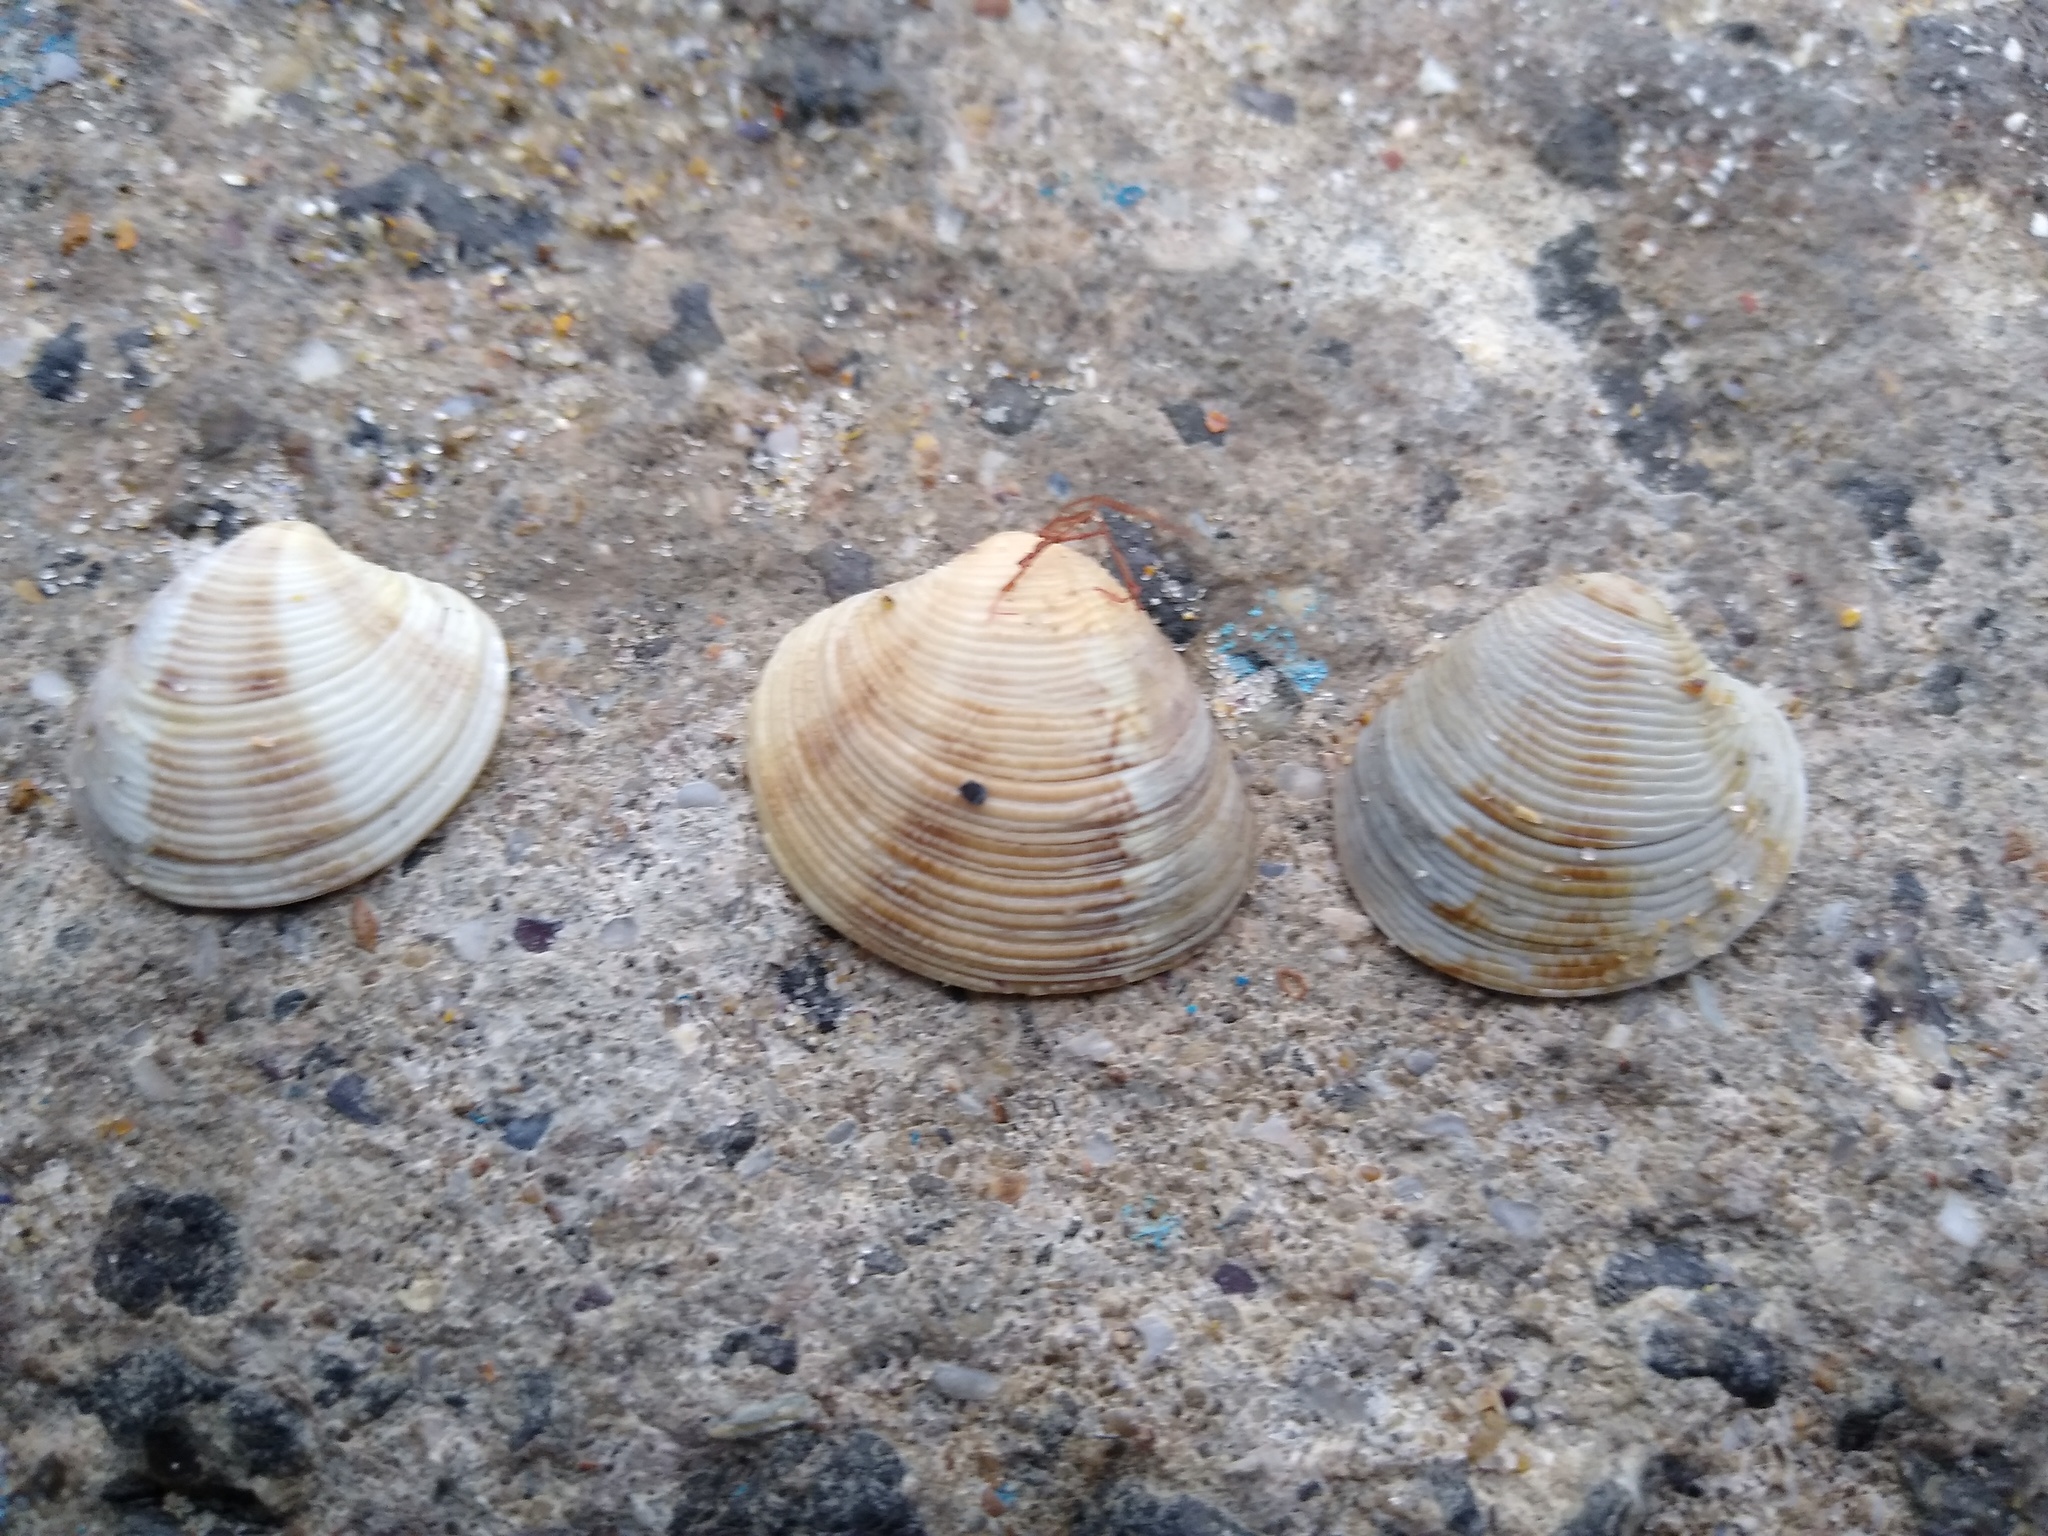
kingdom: Animalia
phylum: Mollusca
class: Bivalvia
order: Venerida
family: Veneridae
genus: Chamelea
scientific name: Chamelea gallina
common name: Chicken venus
